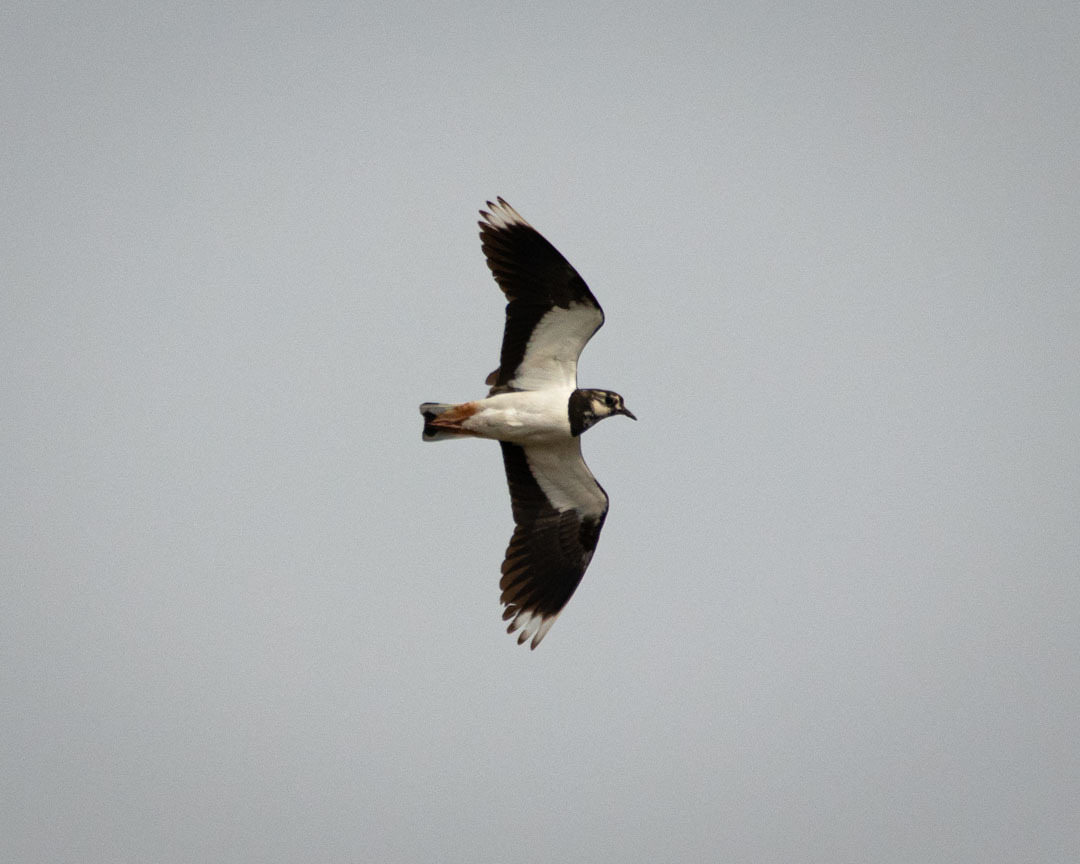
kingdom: Animalia
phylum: Chordata
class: Aves
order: Charadriiformes
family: Charadriidae
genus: Vanellus
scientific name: Vanellus vanellus
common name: Northern lapwing
